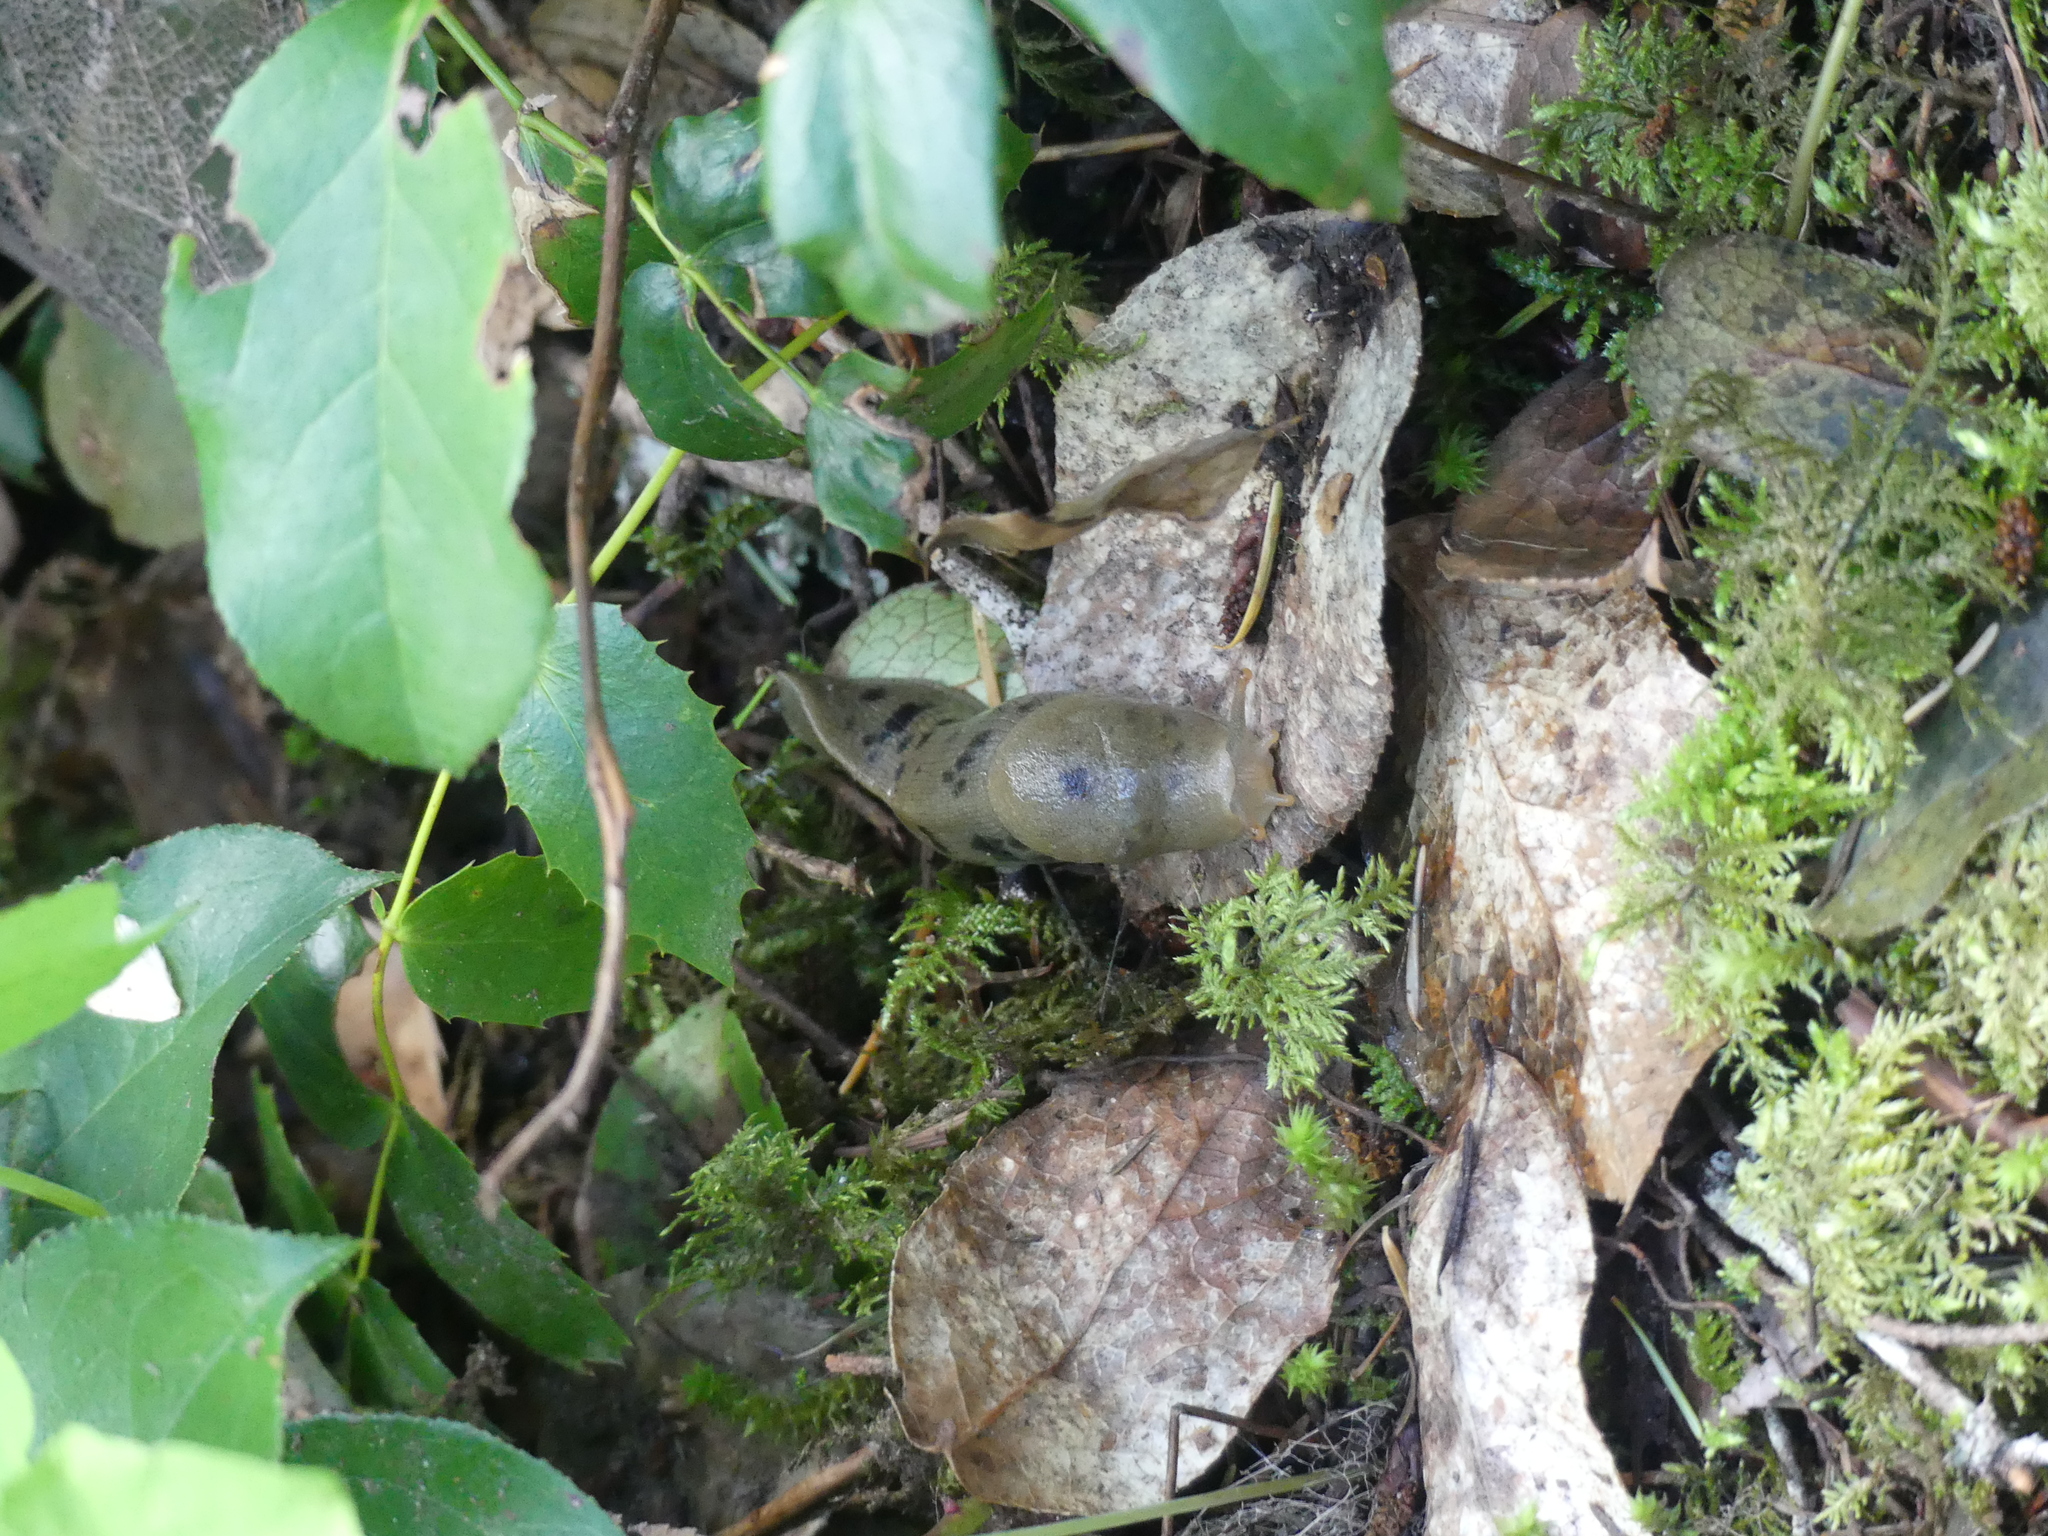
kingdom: Animalia
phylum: Mollusca
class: Gastropoda
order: Stylommatophora
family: Ariolimacidae
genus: Ariolimax
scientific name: Ariolimax columbianus
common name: Pacific banana slug
